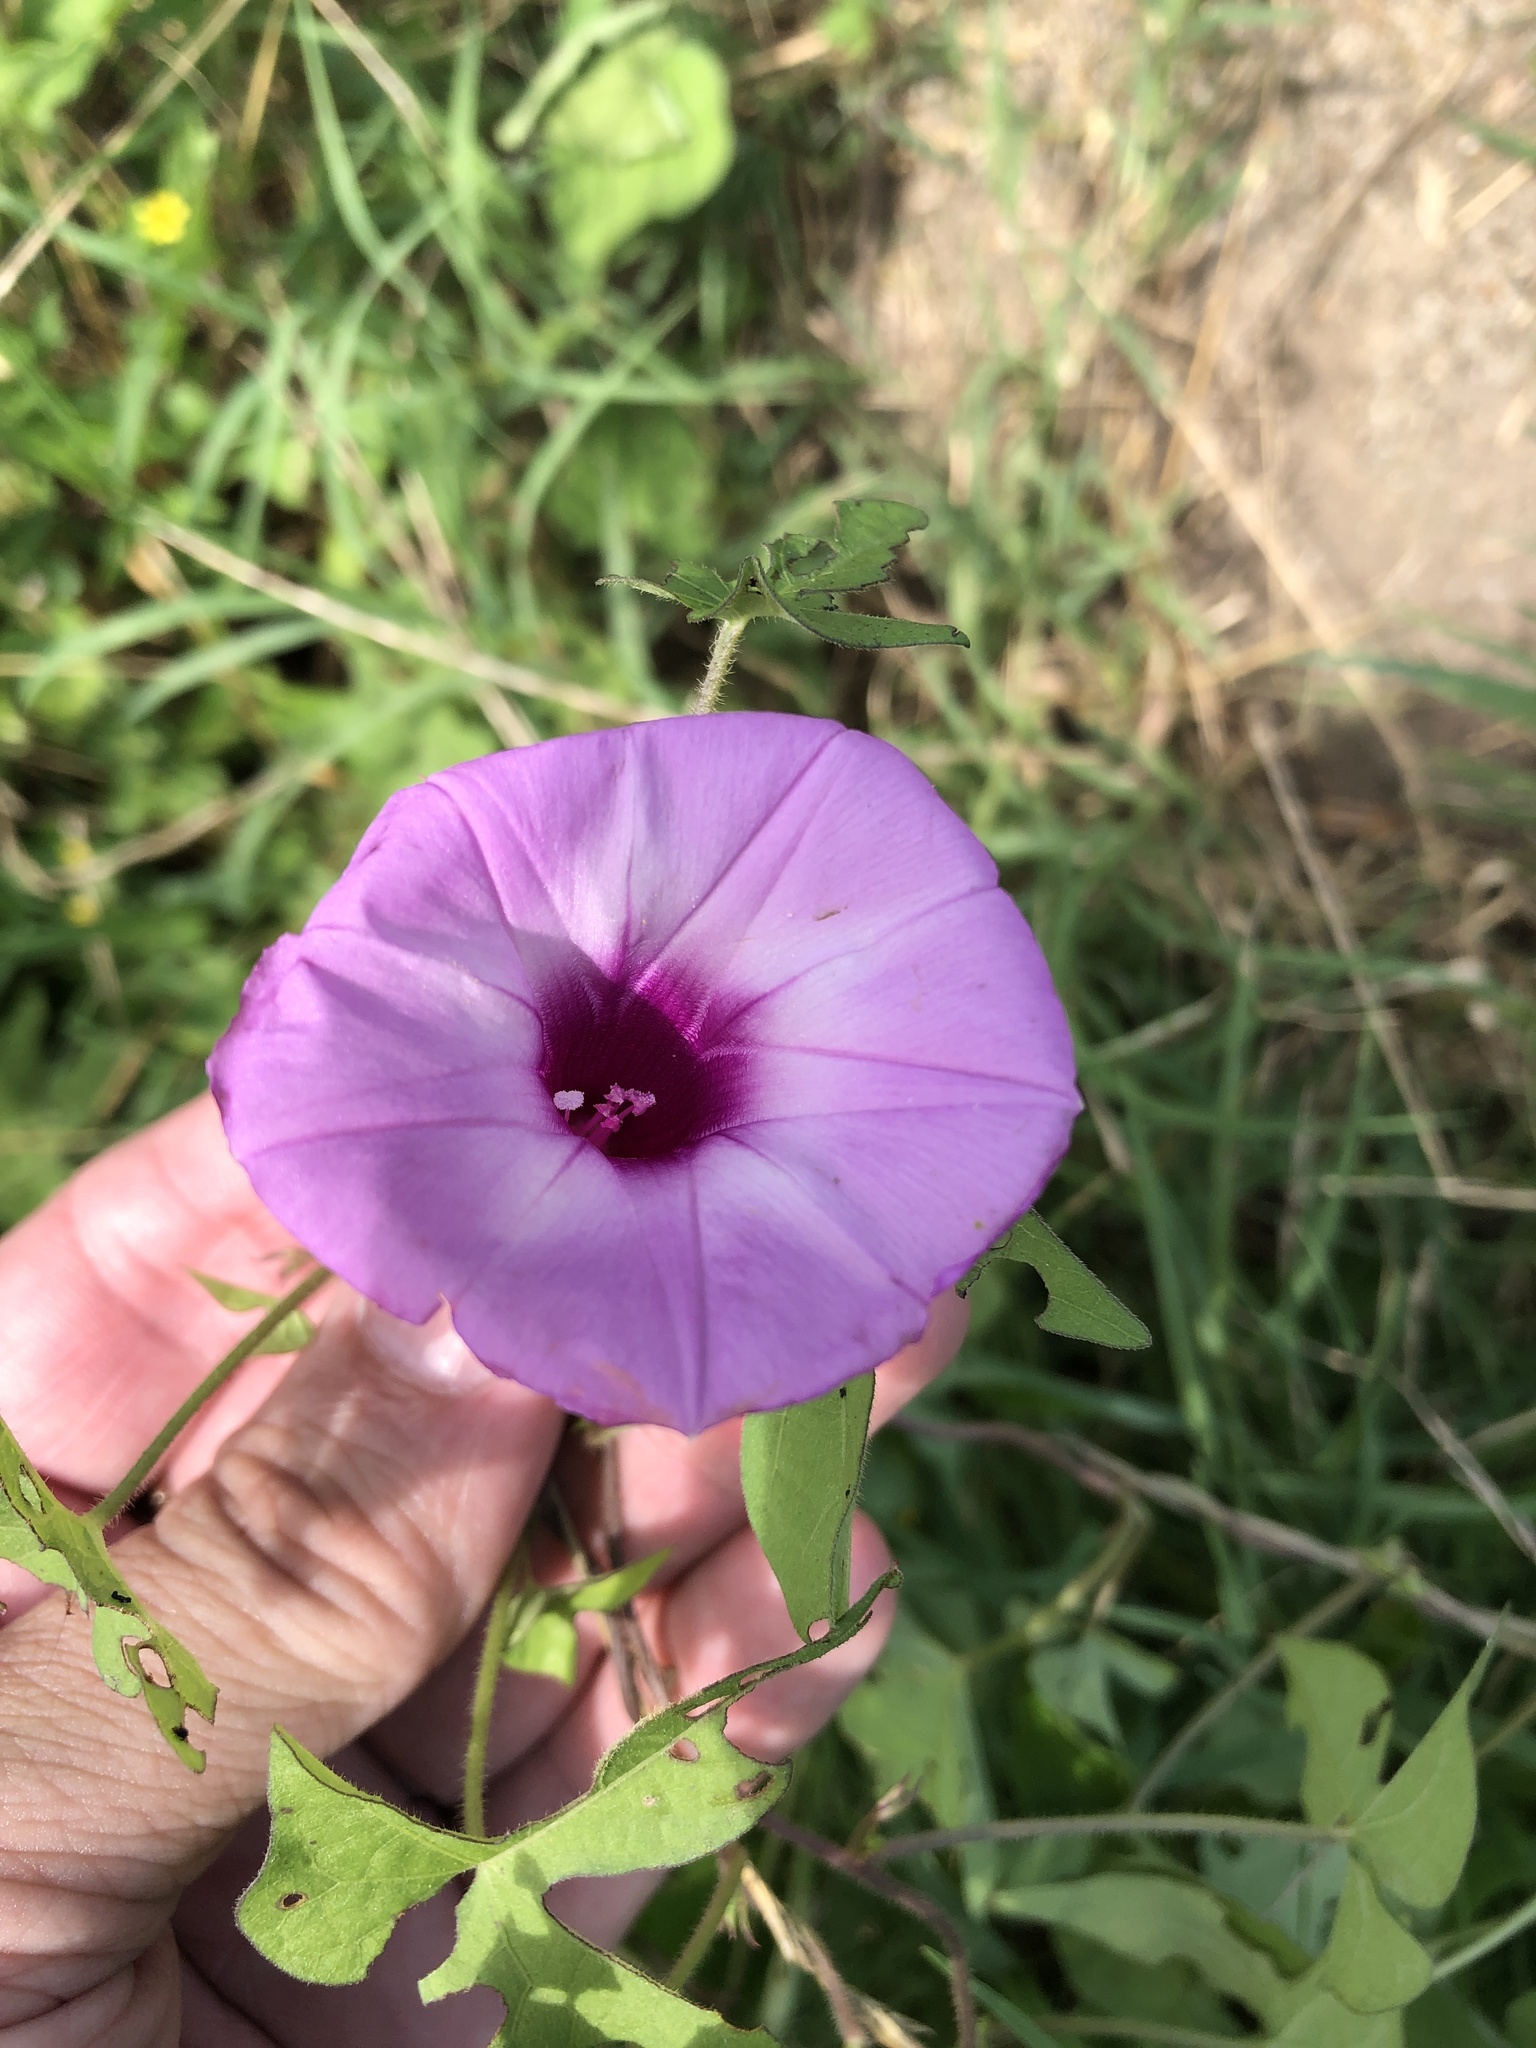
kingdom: Plantae
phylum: Tracheophyta
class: Magnoliopsida
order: Solanales
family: Convolvulaceae
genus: Ipomoea
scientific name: Ipomoea cordatotriloba
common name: Cotton morning glory
